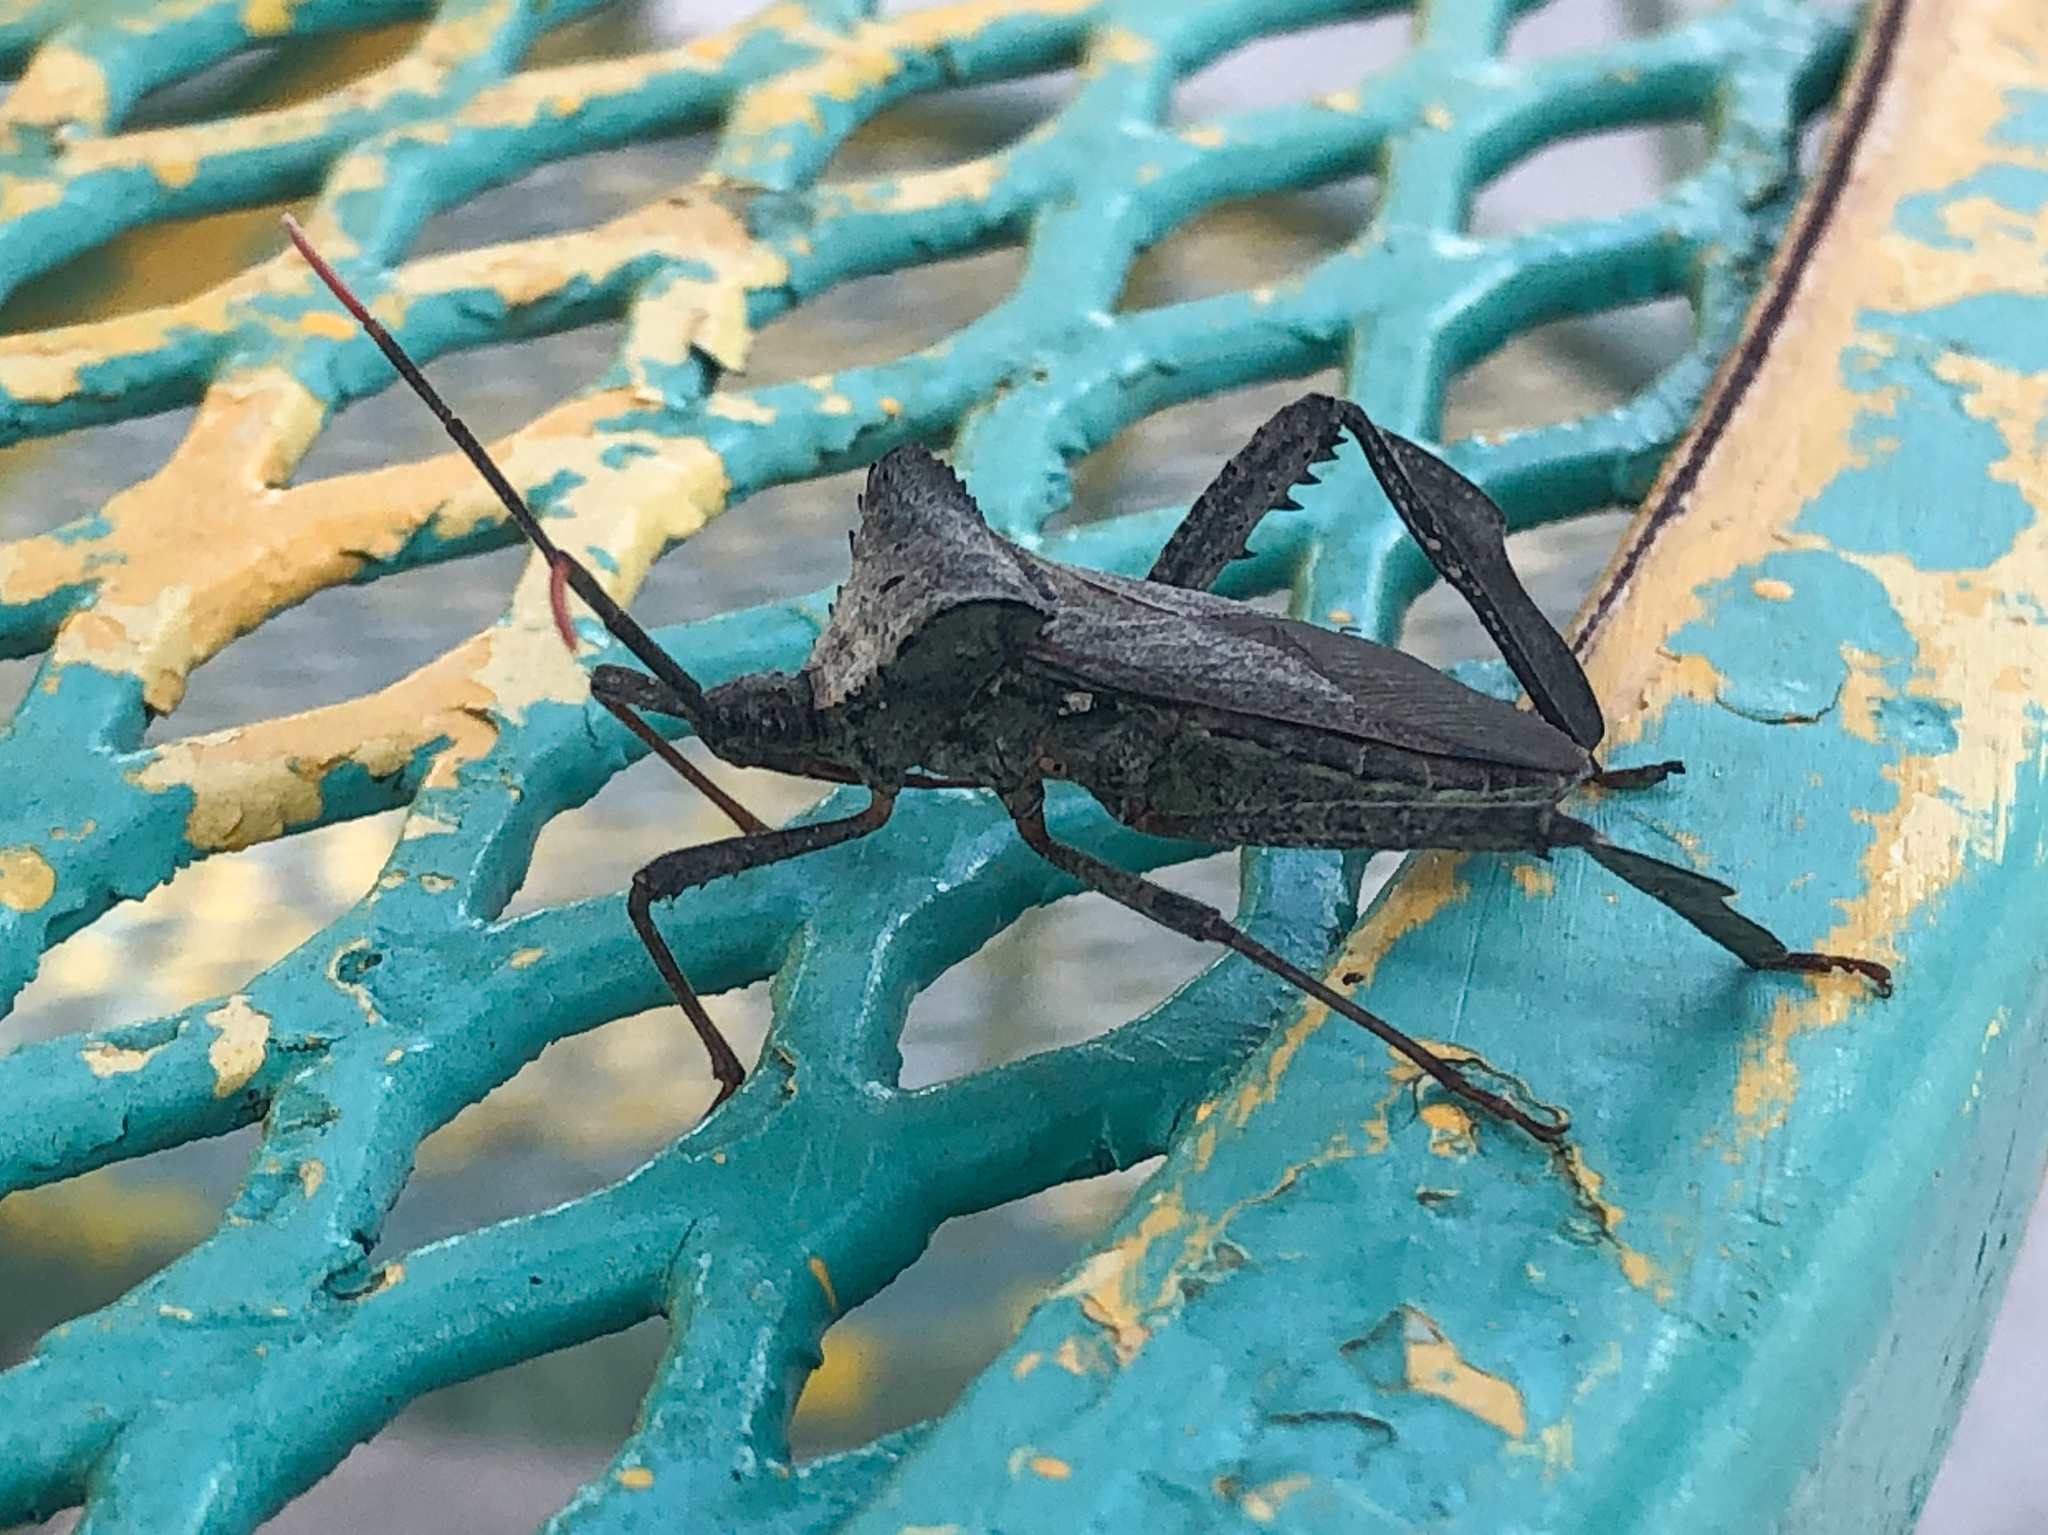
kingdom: Animalia
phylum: Arthropoda
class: Insecta
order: Hemiptera
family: Coreidae
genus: Acanthocephala
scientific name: Acanthocephala alata
